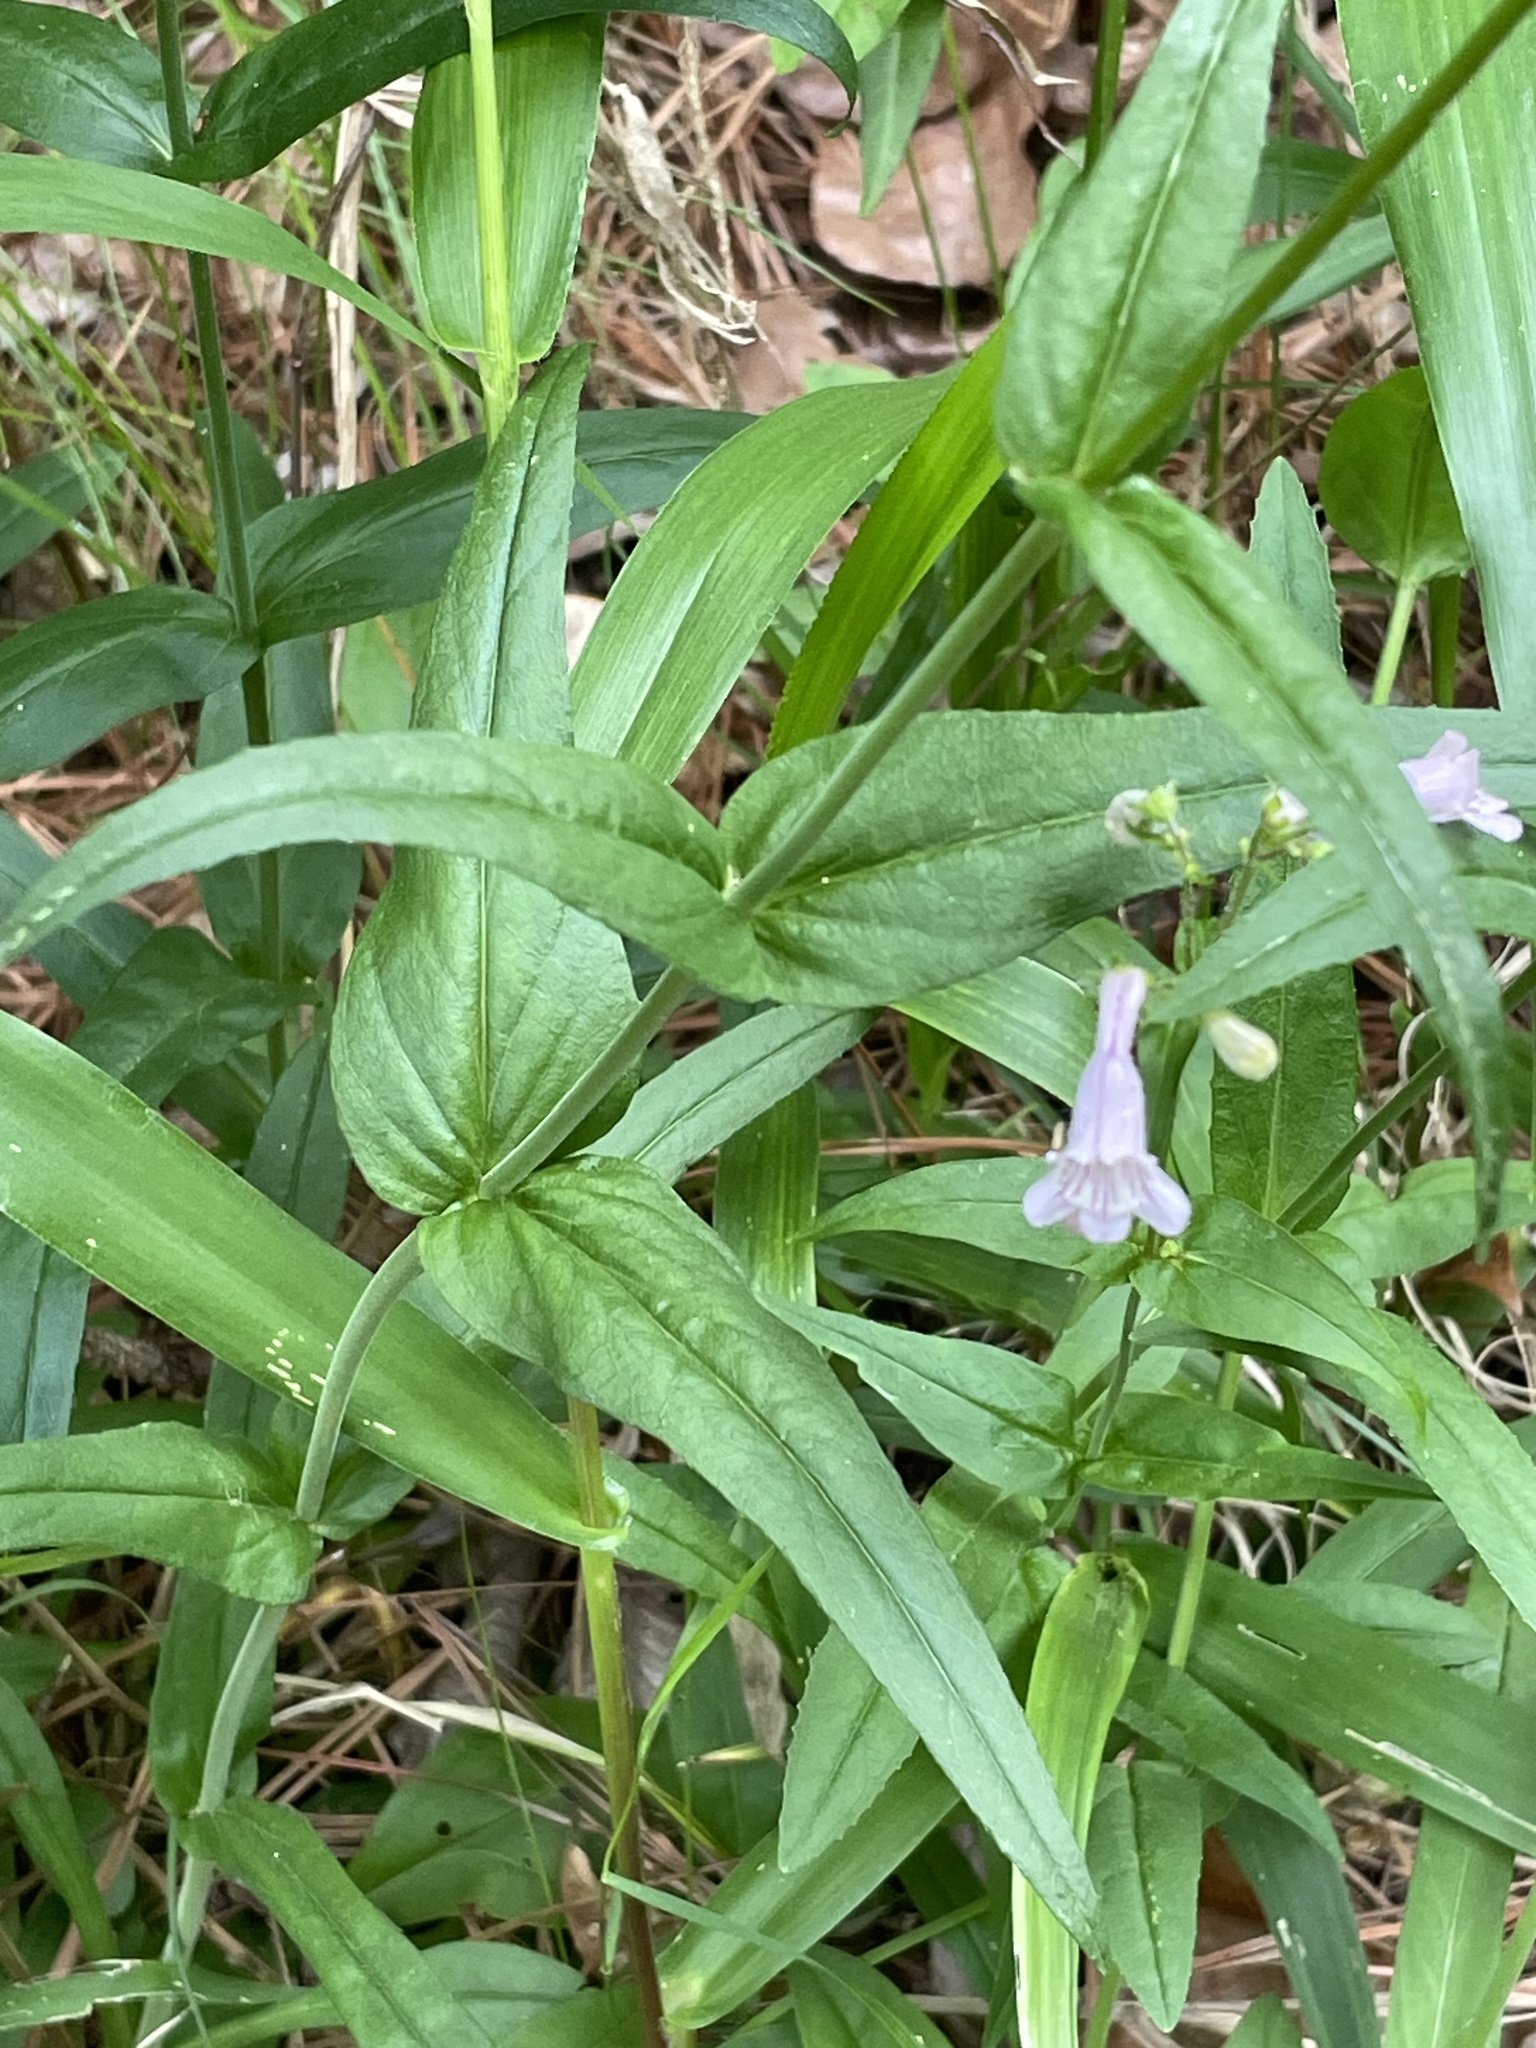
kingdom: Plantae
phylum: Tracheophyta
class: Magnoliopsida
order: Lamiales
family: Plantaginaceae
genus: Penstemon
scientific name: Penstemon laevigatus
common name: Eastern beardtongue
